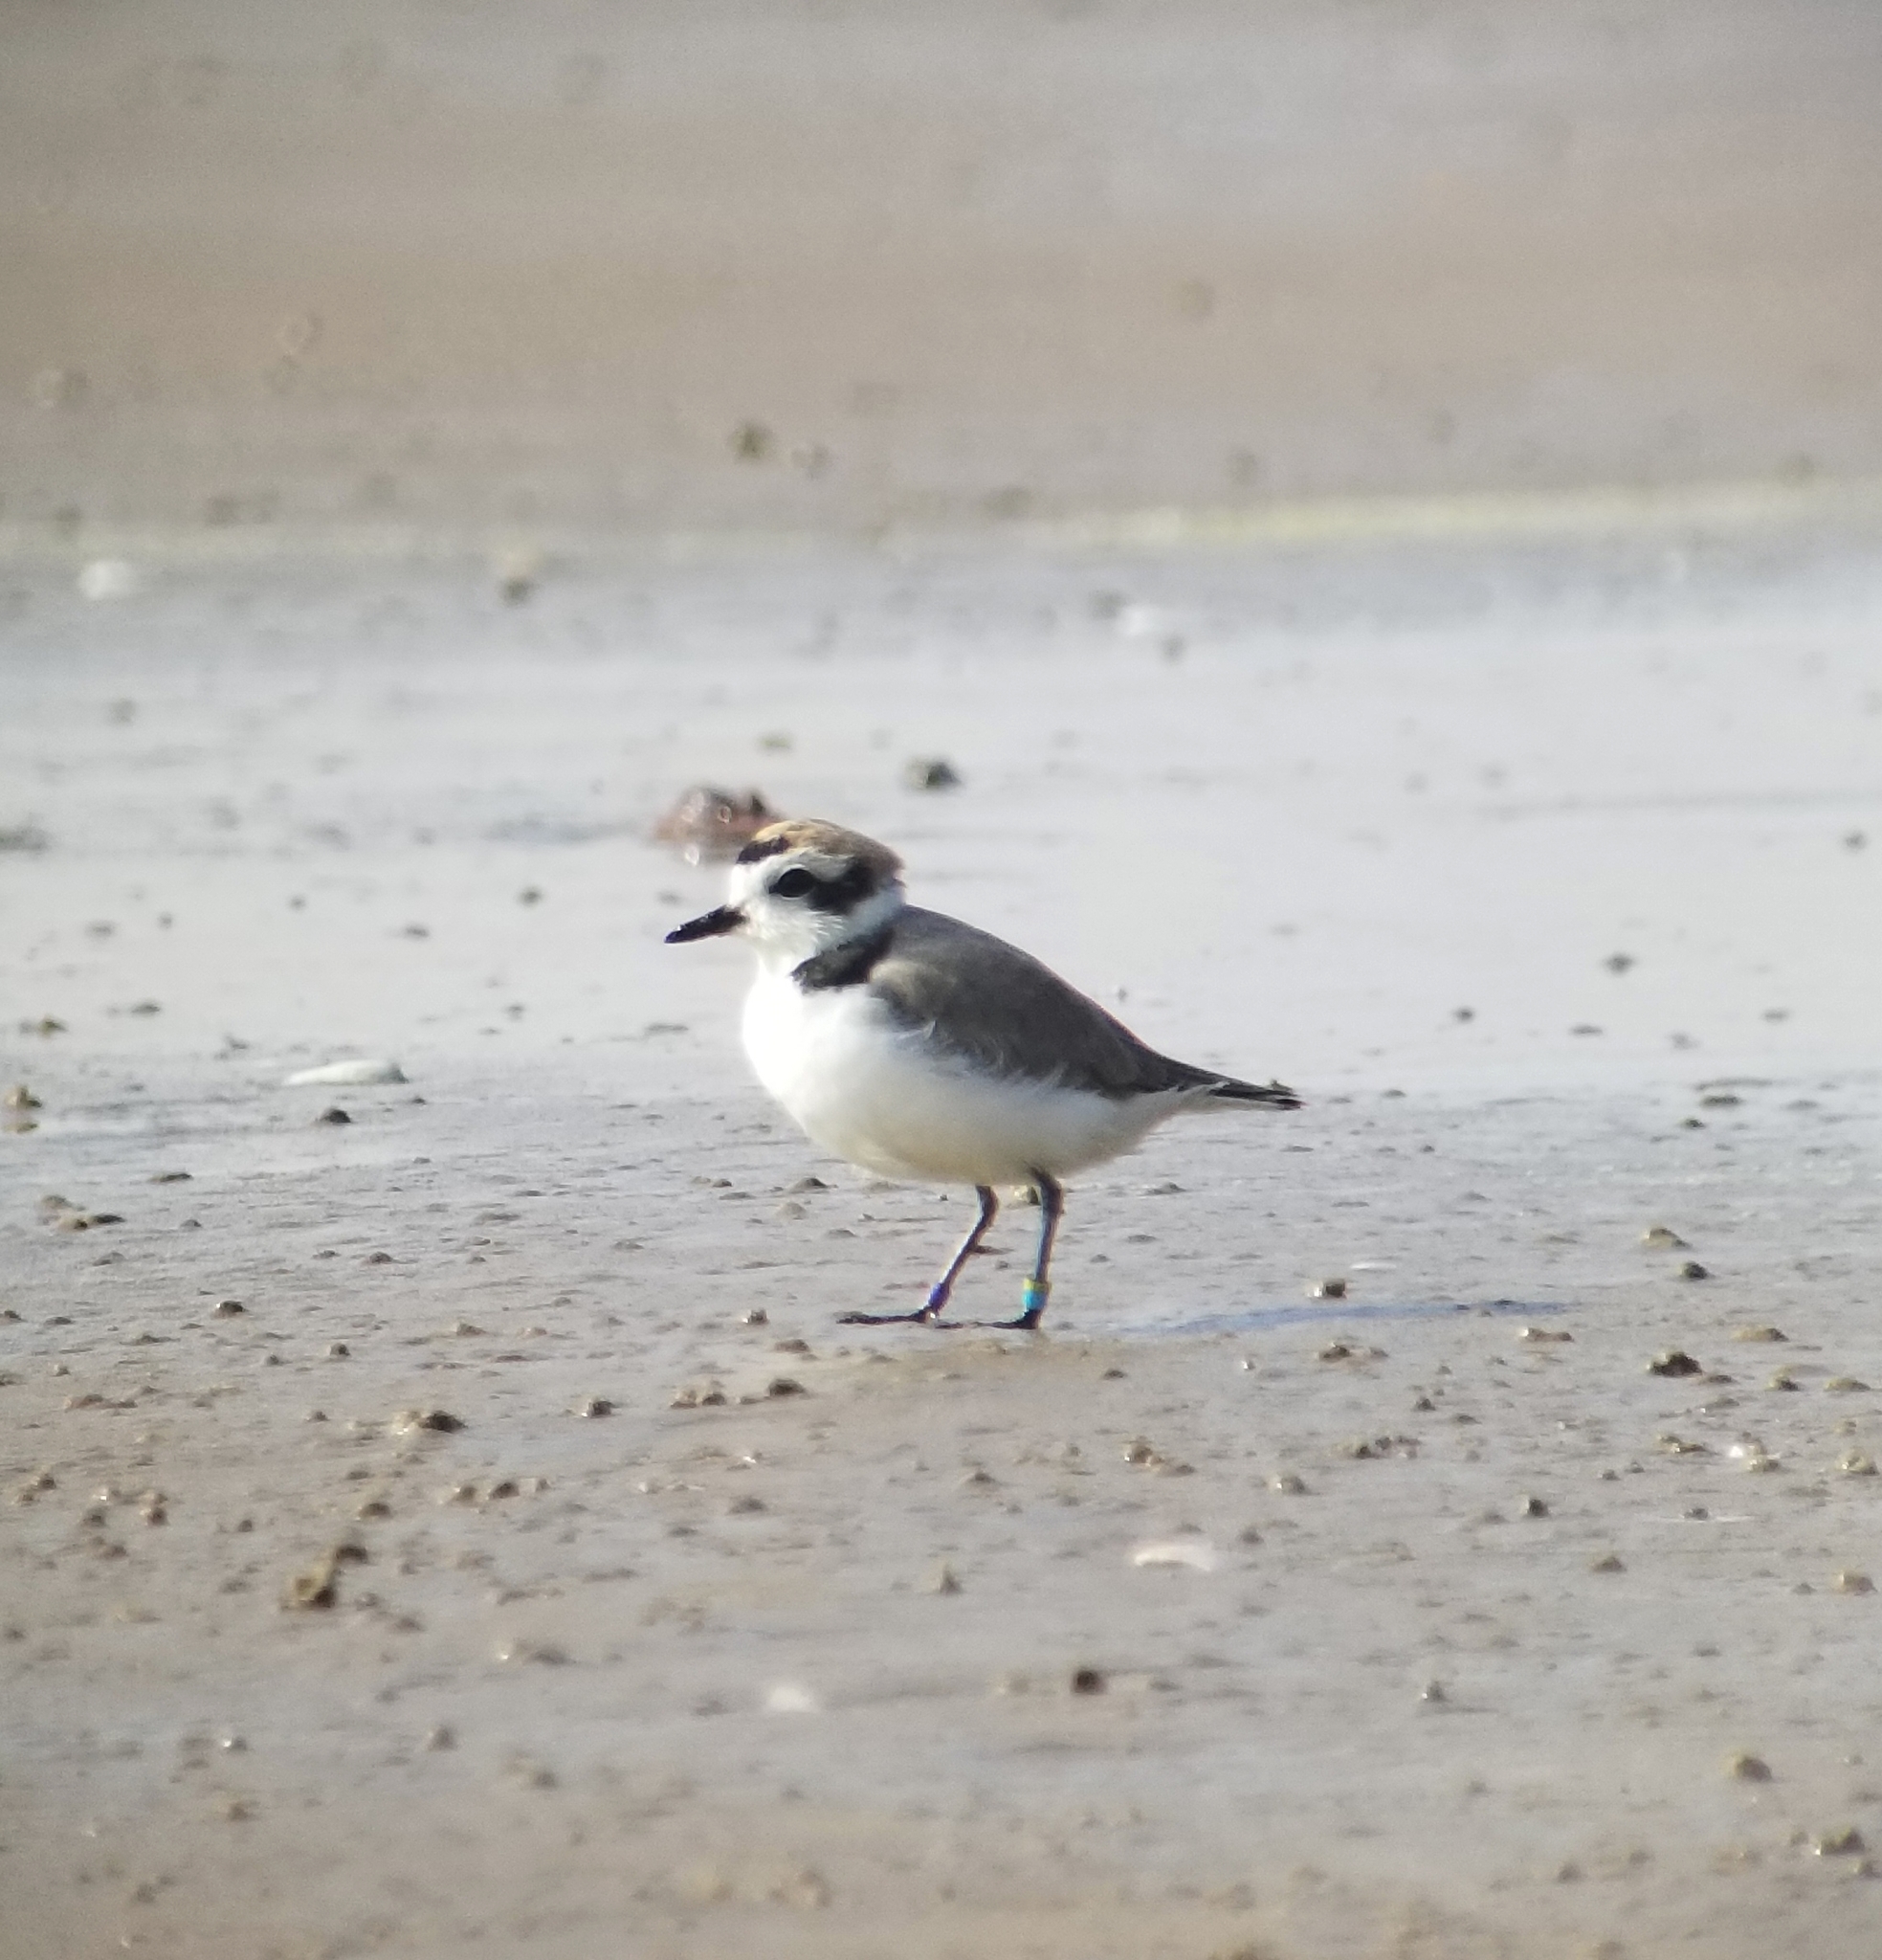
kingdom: Animalia
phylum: Chordata
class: Aves
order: Charadriiformes
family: Charadriidae
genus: Anarhynchus
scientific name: Anarhynchus
